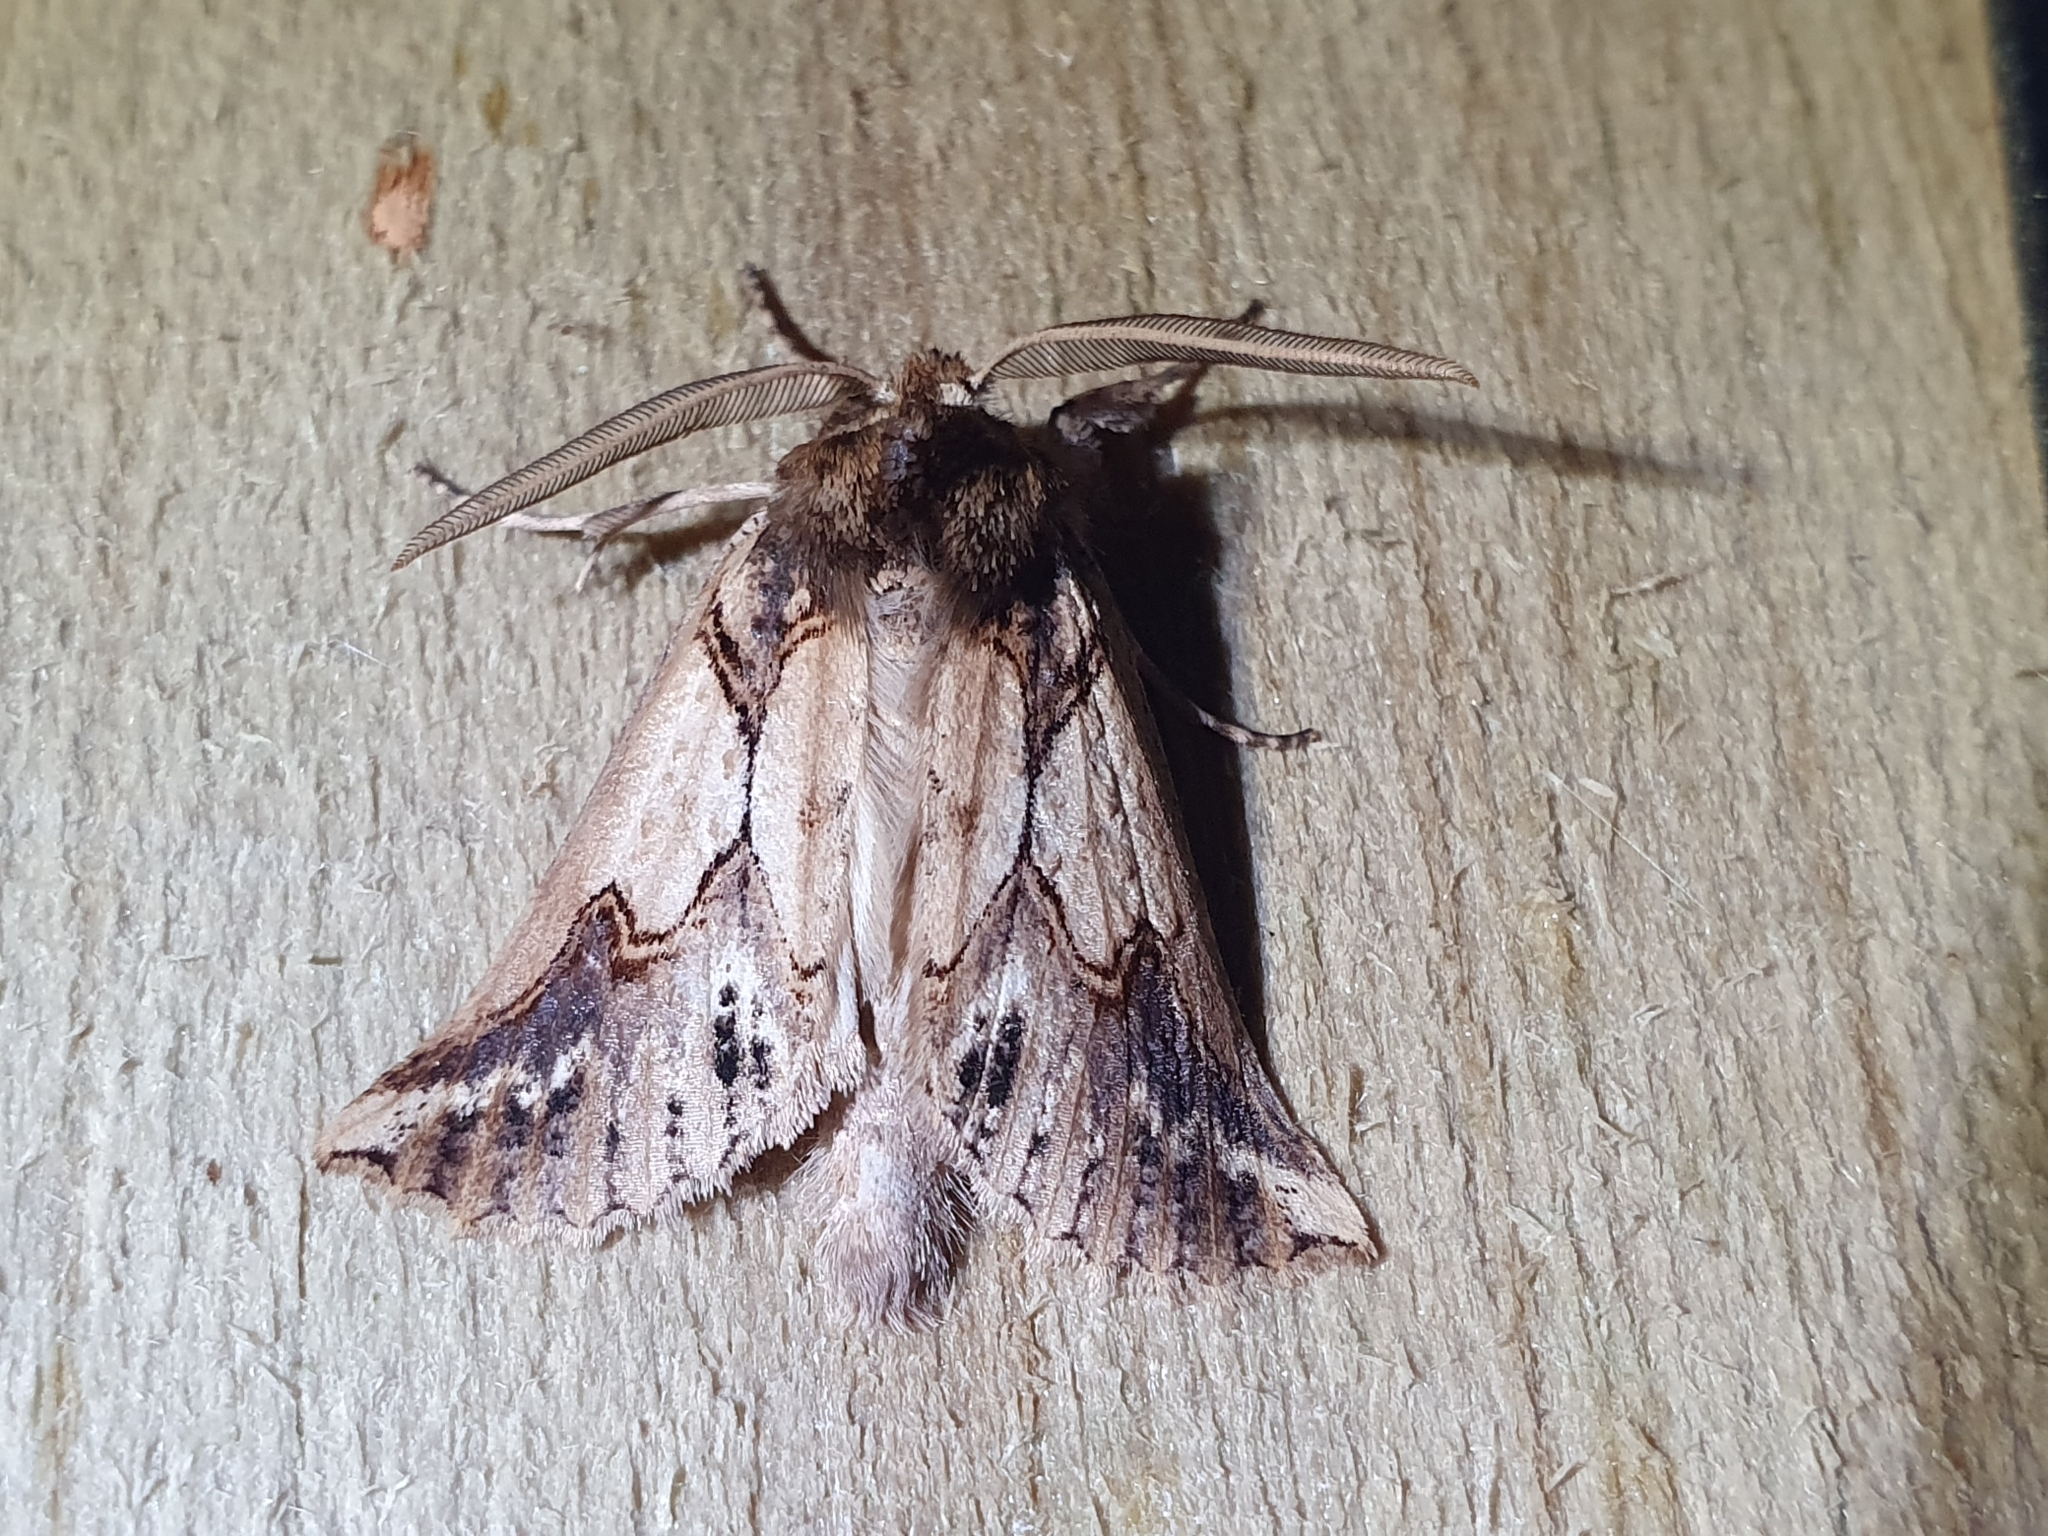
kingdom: Animalia
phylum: Arthropoda
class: Insecta
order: Lepidoptera
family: Geometridae
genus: Declana
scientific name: Declana
